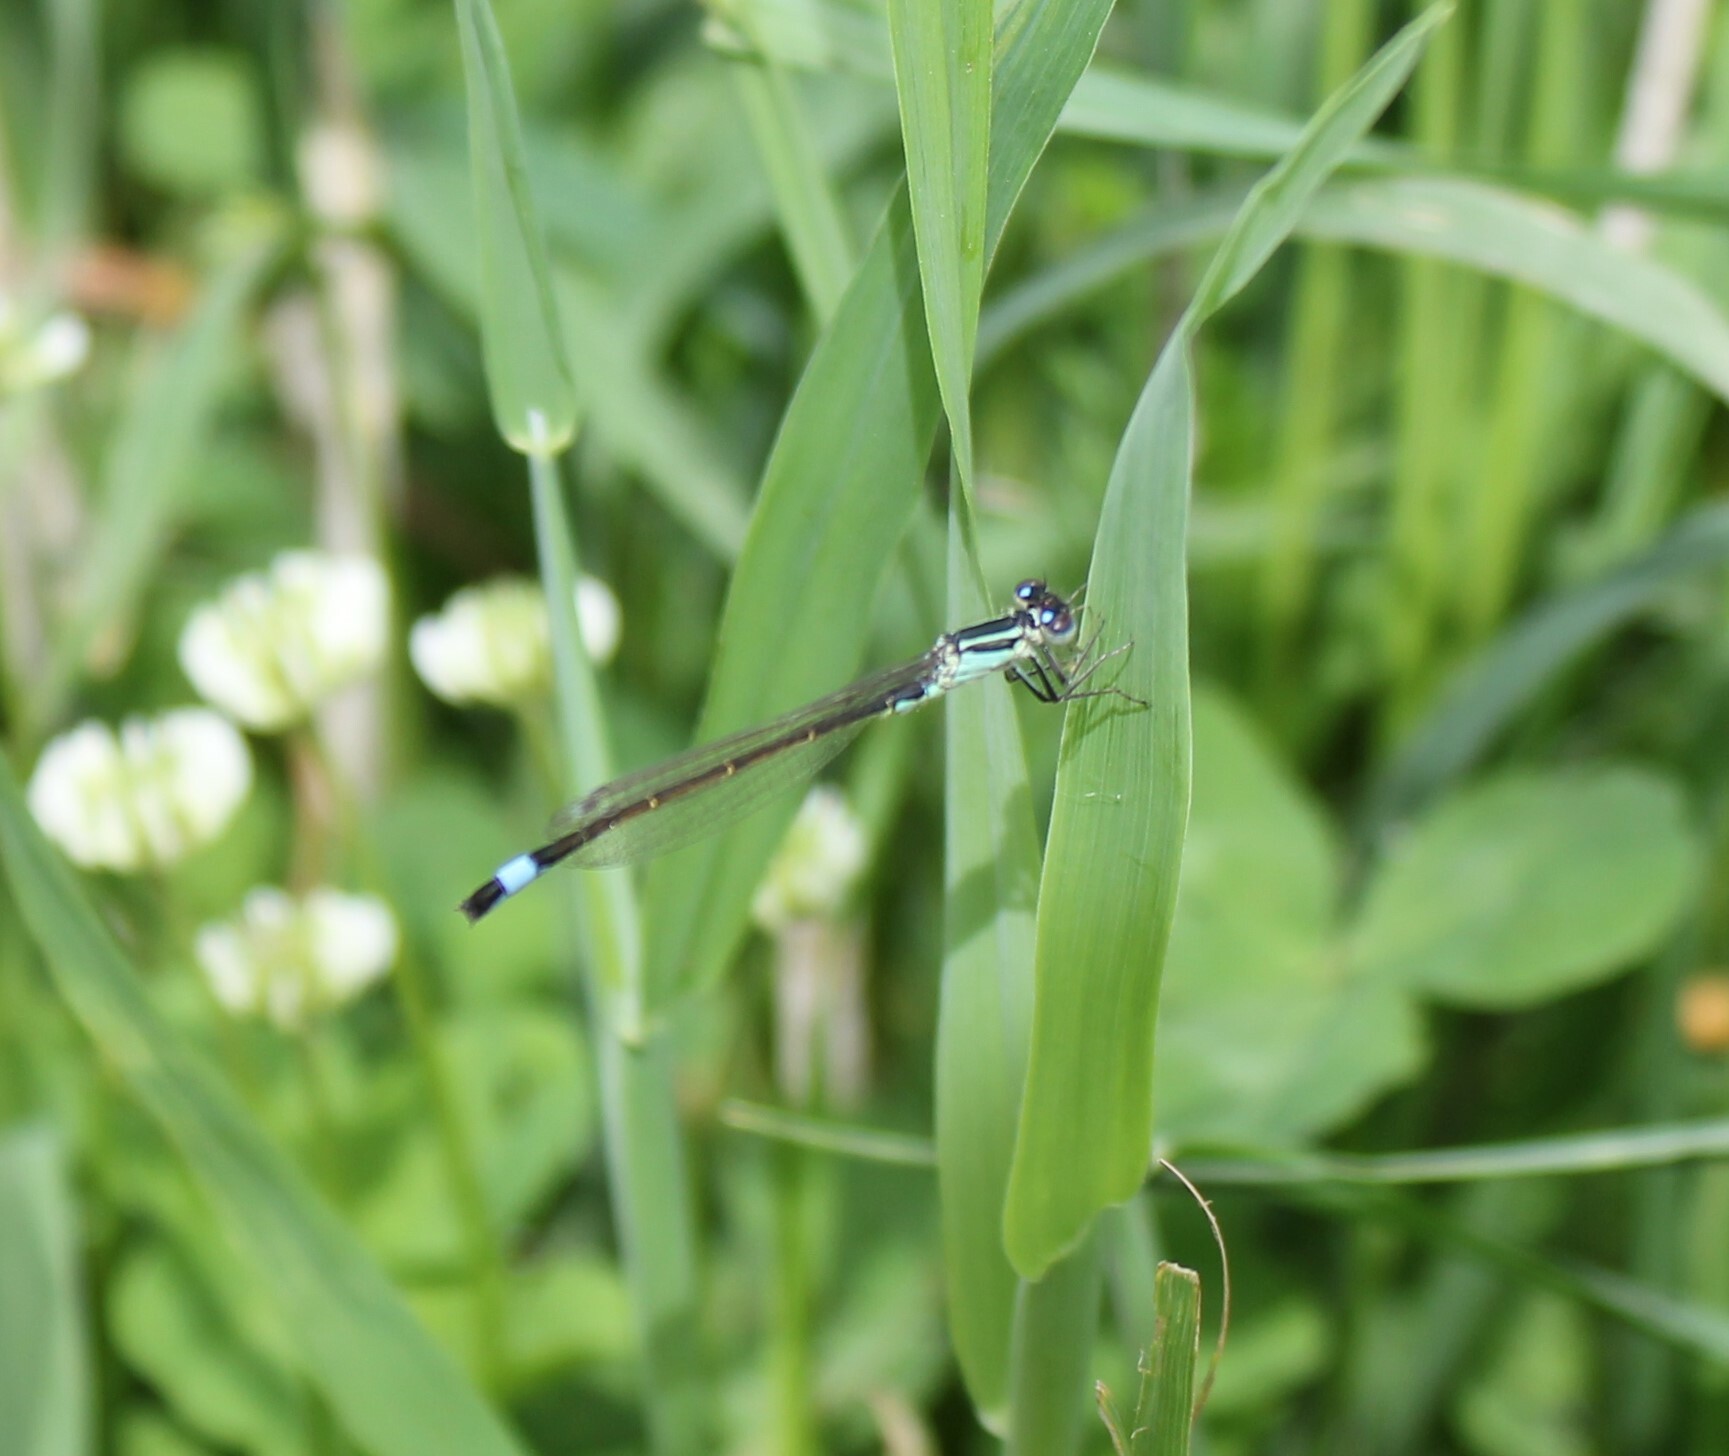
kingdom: Animalia
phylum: Arthropoda
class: Insecta
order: Odonata
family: Coenagrionidae
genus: Ischnura
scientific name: Ischnura elegans
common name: Blue-tailed damselfly
